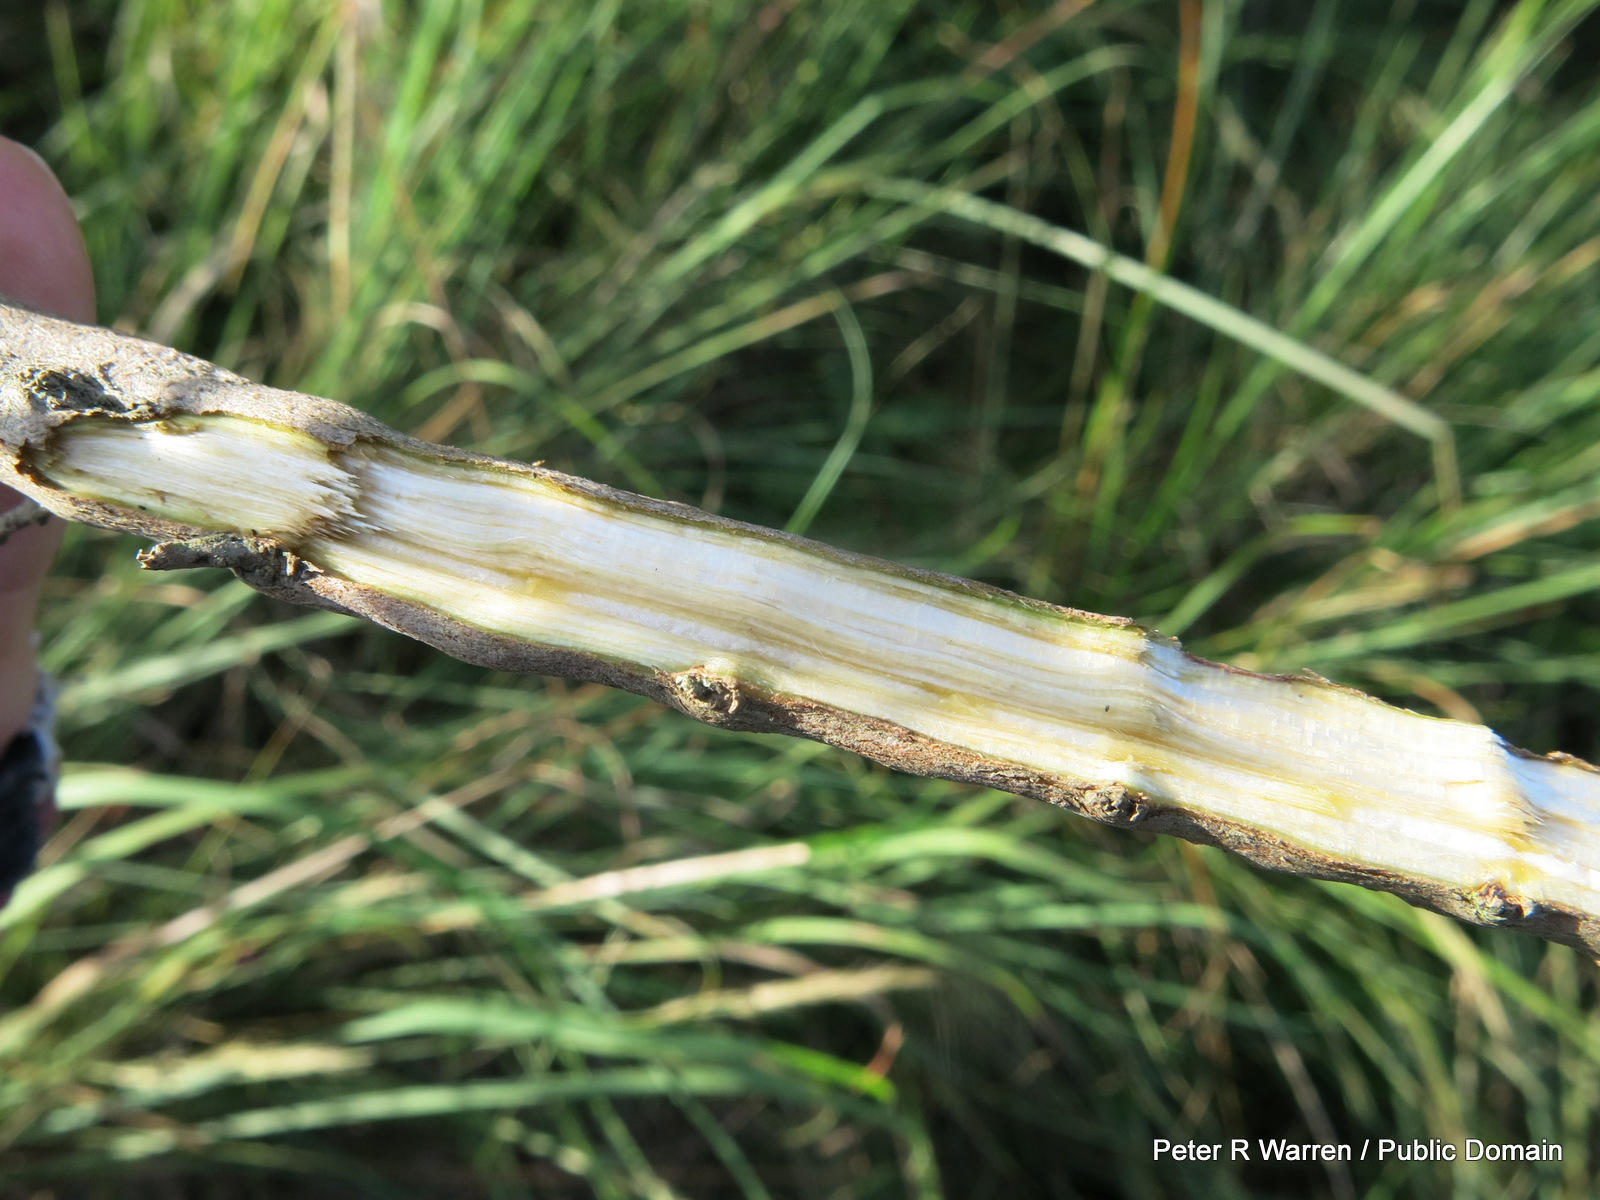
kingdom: Plantae
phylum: Tracheophyta
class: Magnoliopsida
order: Lamiales
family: Lamiaceae
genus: Syncolostemon
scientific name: Syncolostemon densiflorus
